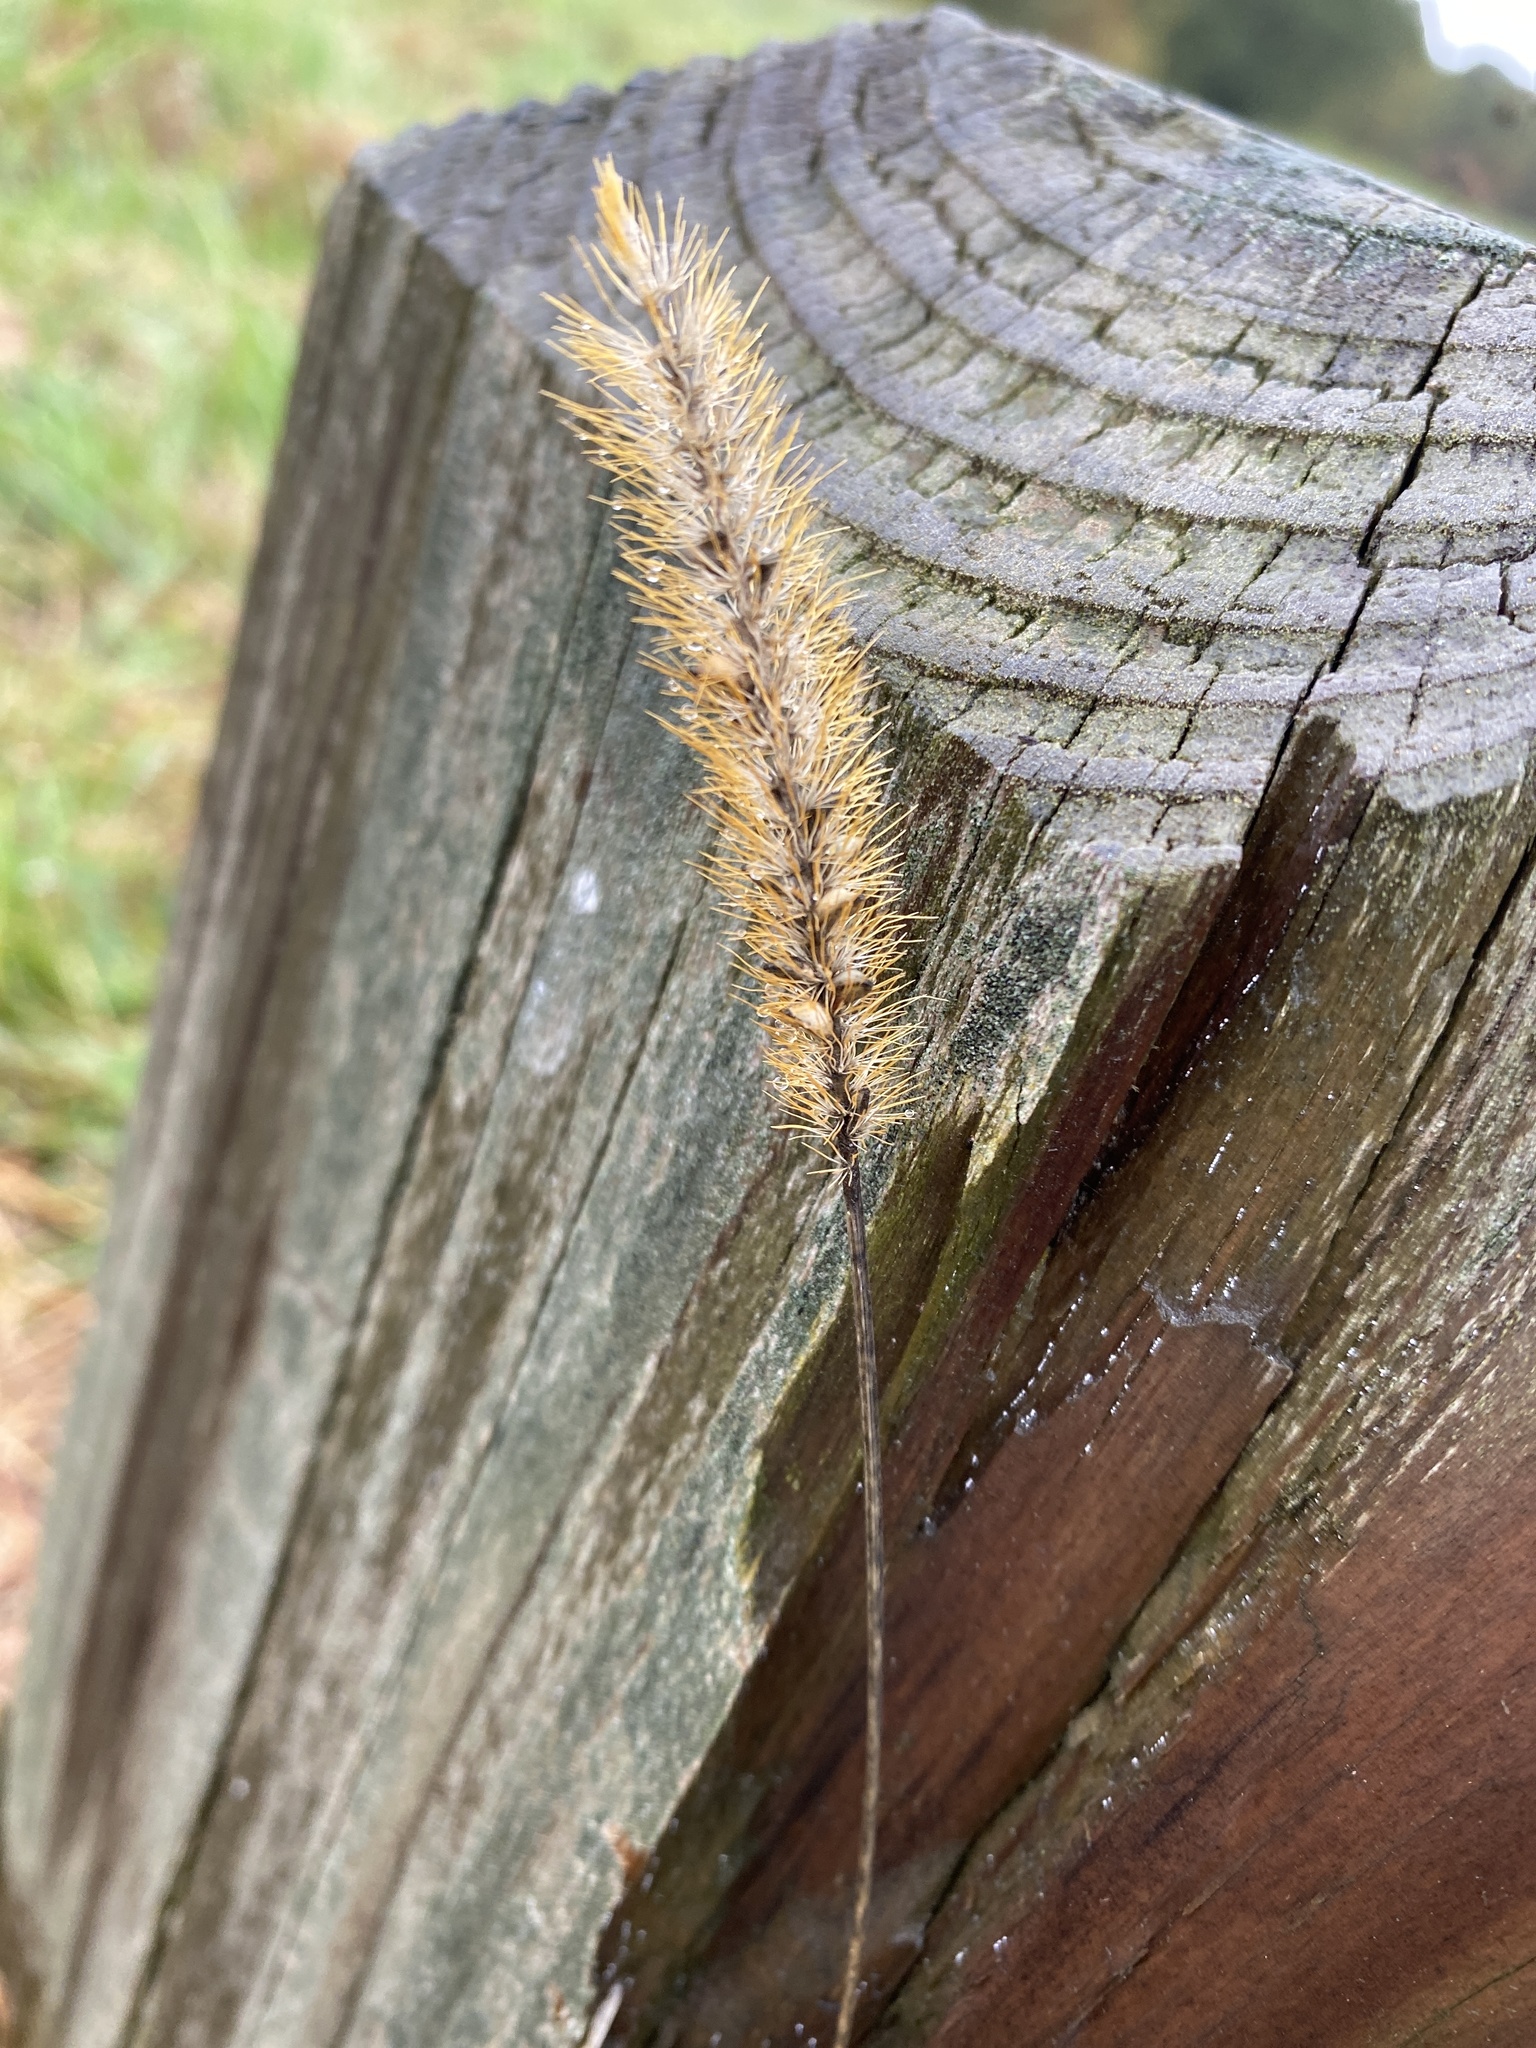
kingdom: Plantae
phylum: Tracheophyta
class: Liliopsida
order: Poales
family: Poaceae
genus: Setaria
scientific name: Setaria pumila
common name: Yellow bristle-grass
